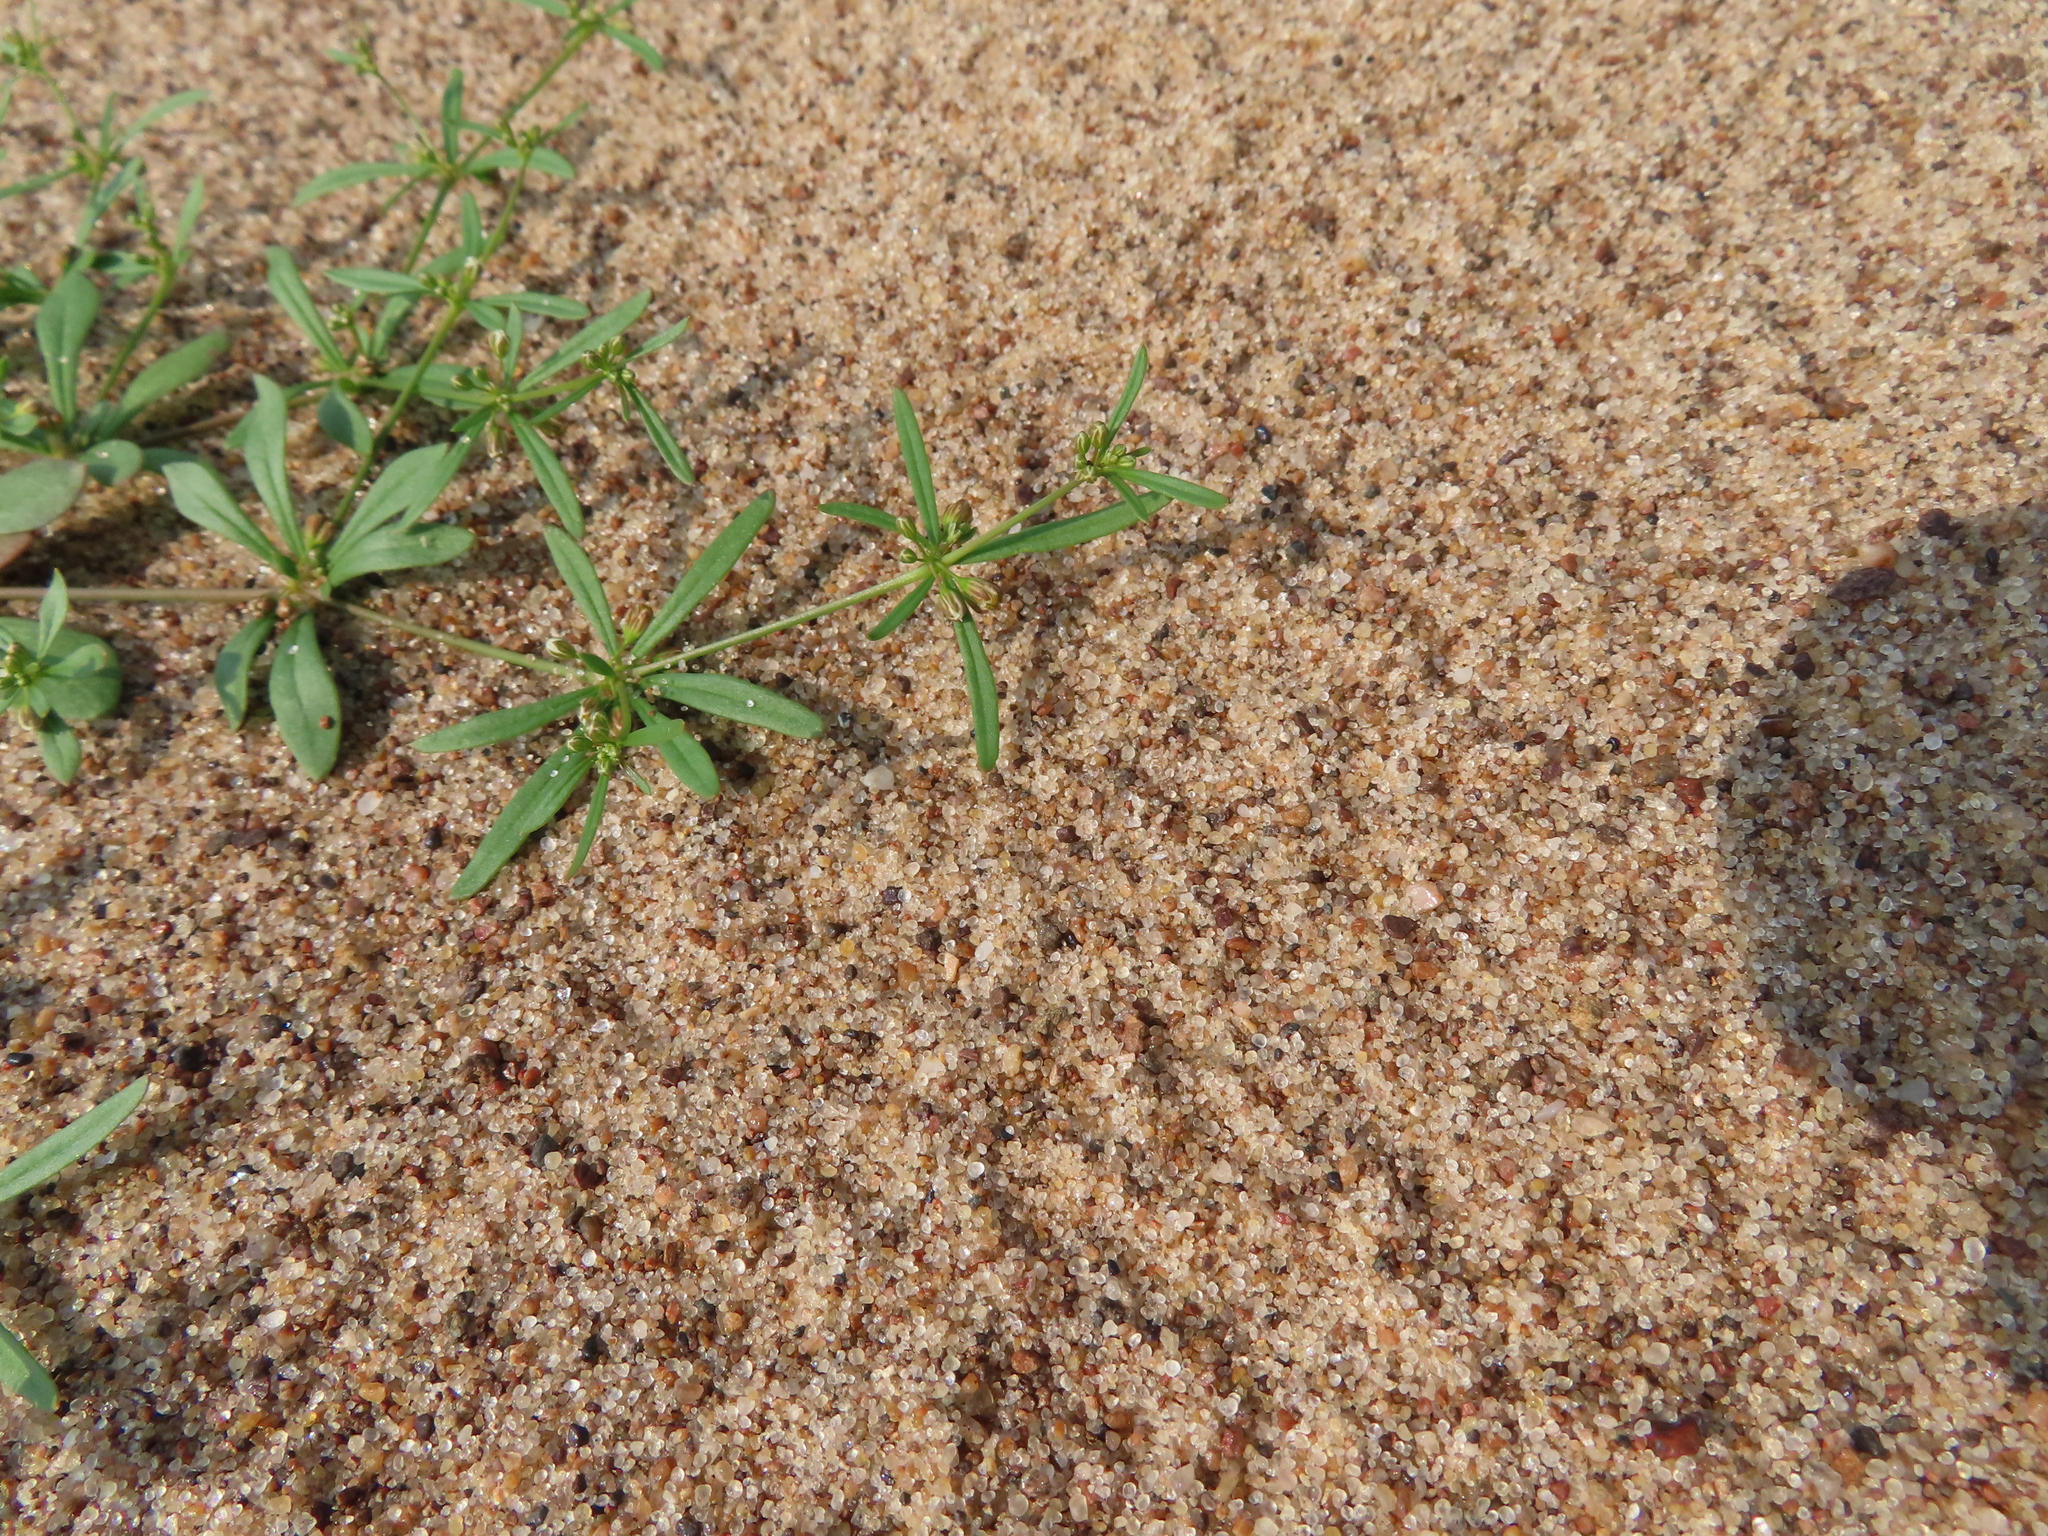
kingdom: Plantae
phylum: Tracheophyta
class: Magnoliopsida
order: Caryophyllales
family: Molluginaceae
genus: Mollugo
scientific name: Mollugo verticillata
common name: Green carpetweed
